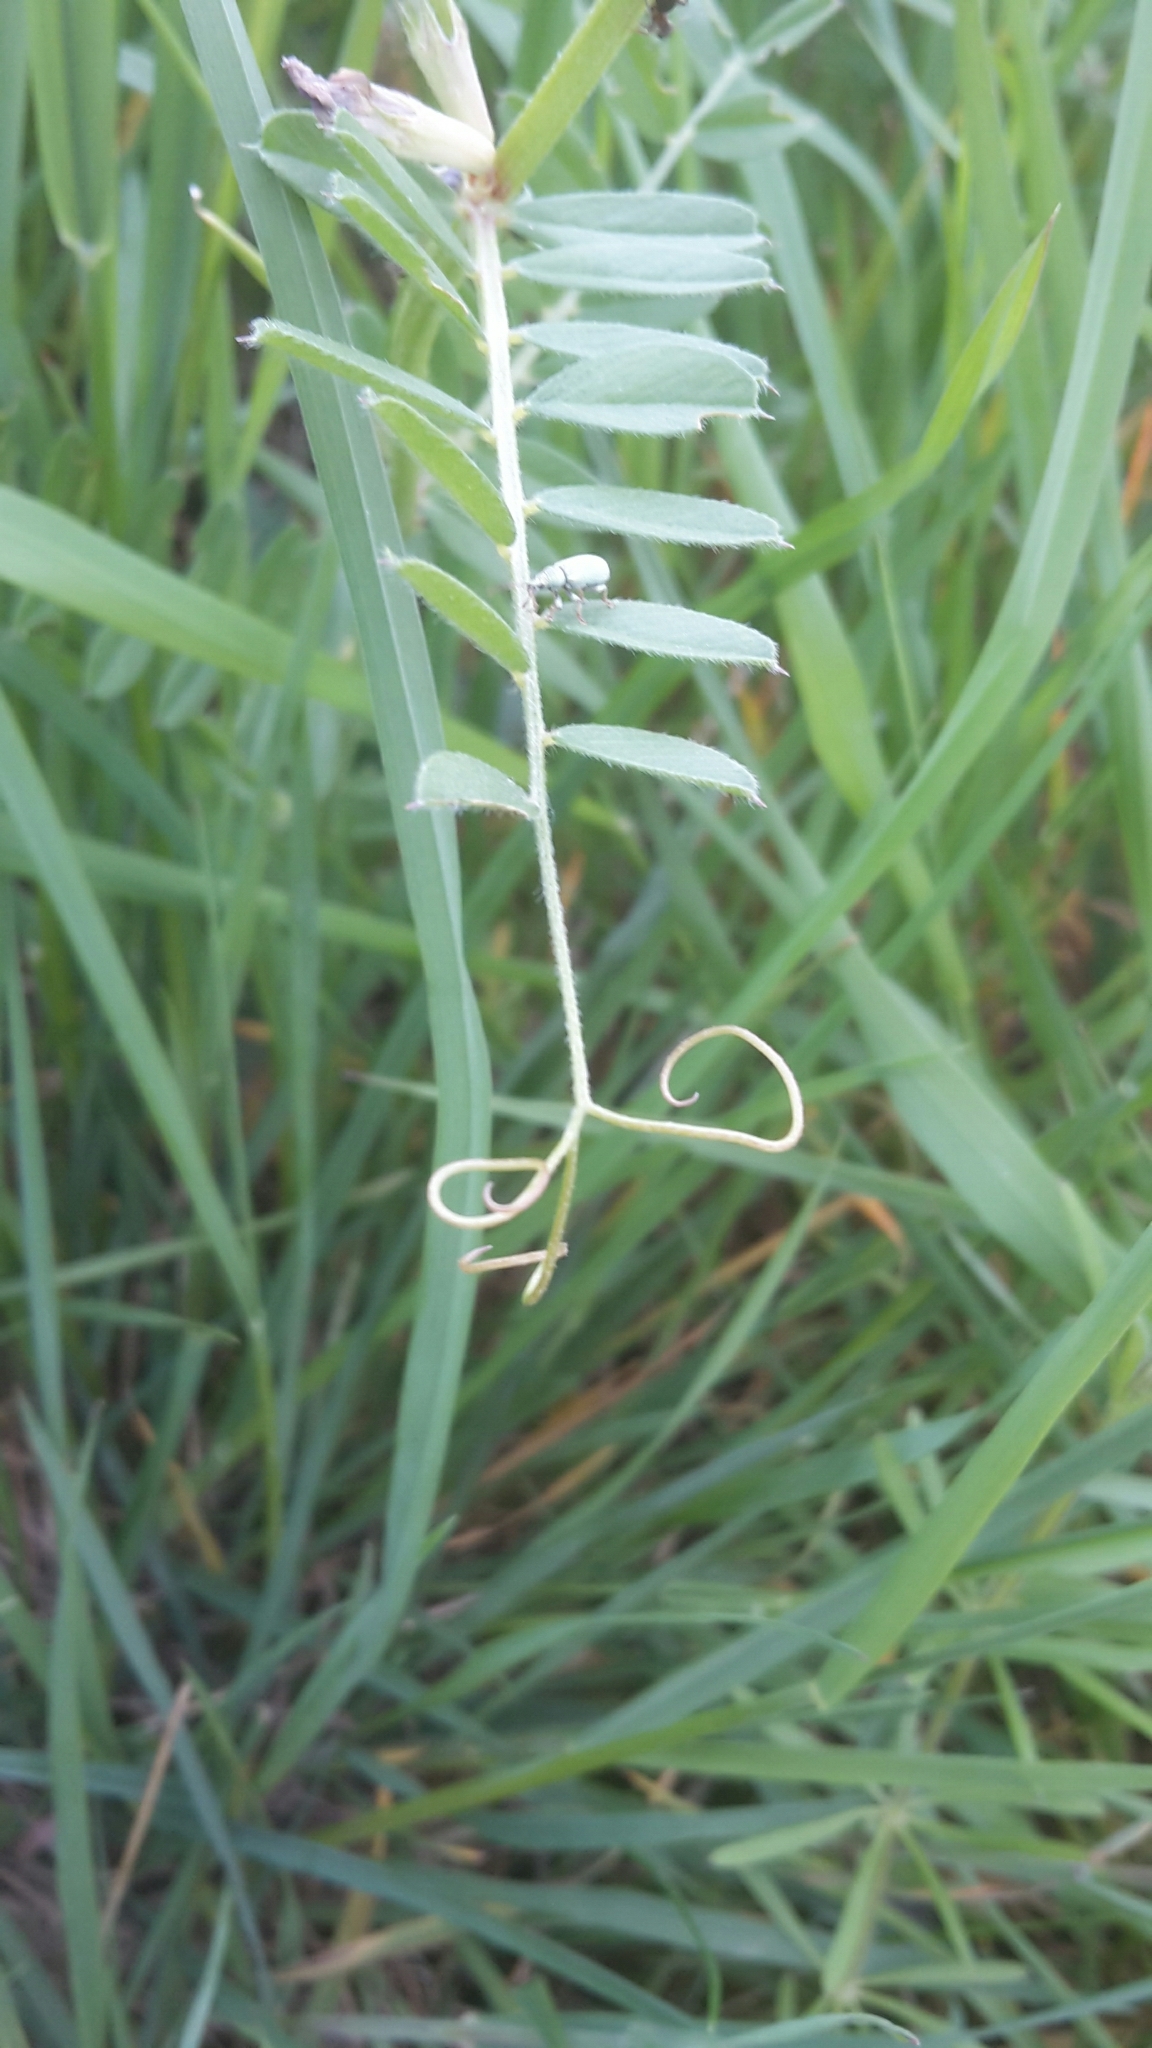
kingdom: Plantae
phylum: Tracheophyta
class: Magnoliopsida
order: Fabales
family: Fabaceae
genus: Vicia
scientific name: Vicia sativa
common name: Garden vetch
